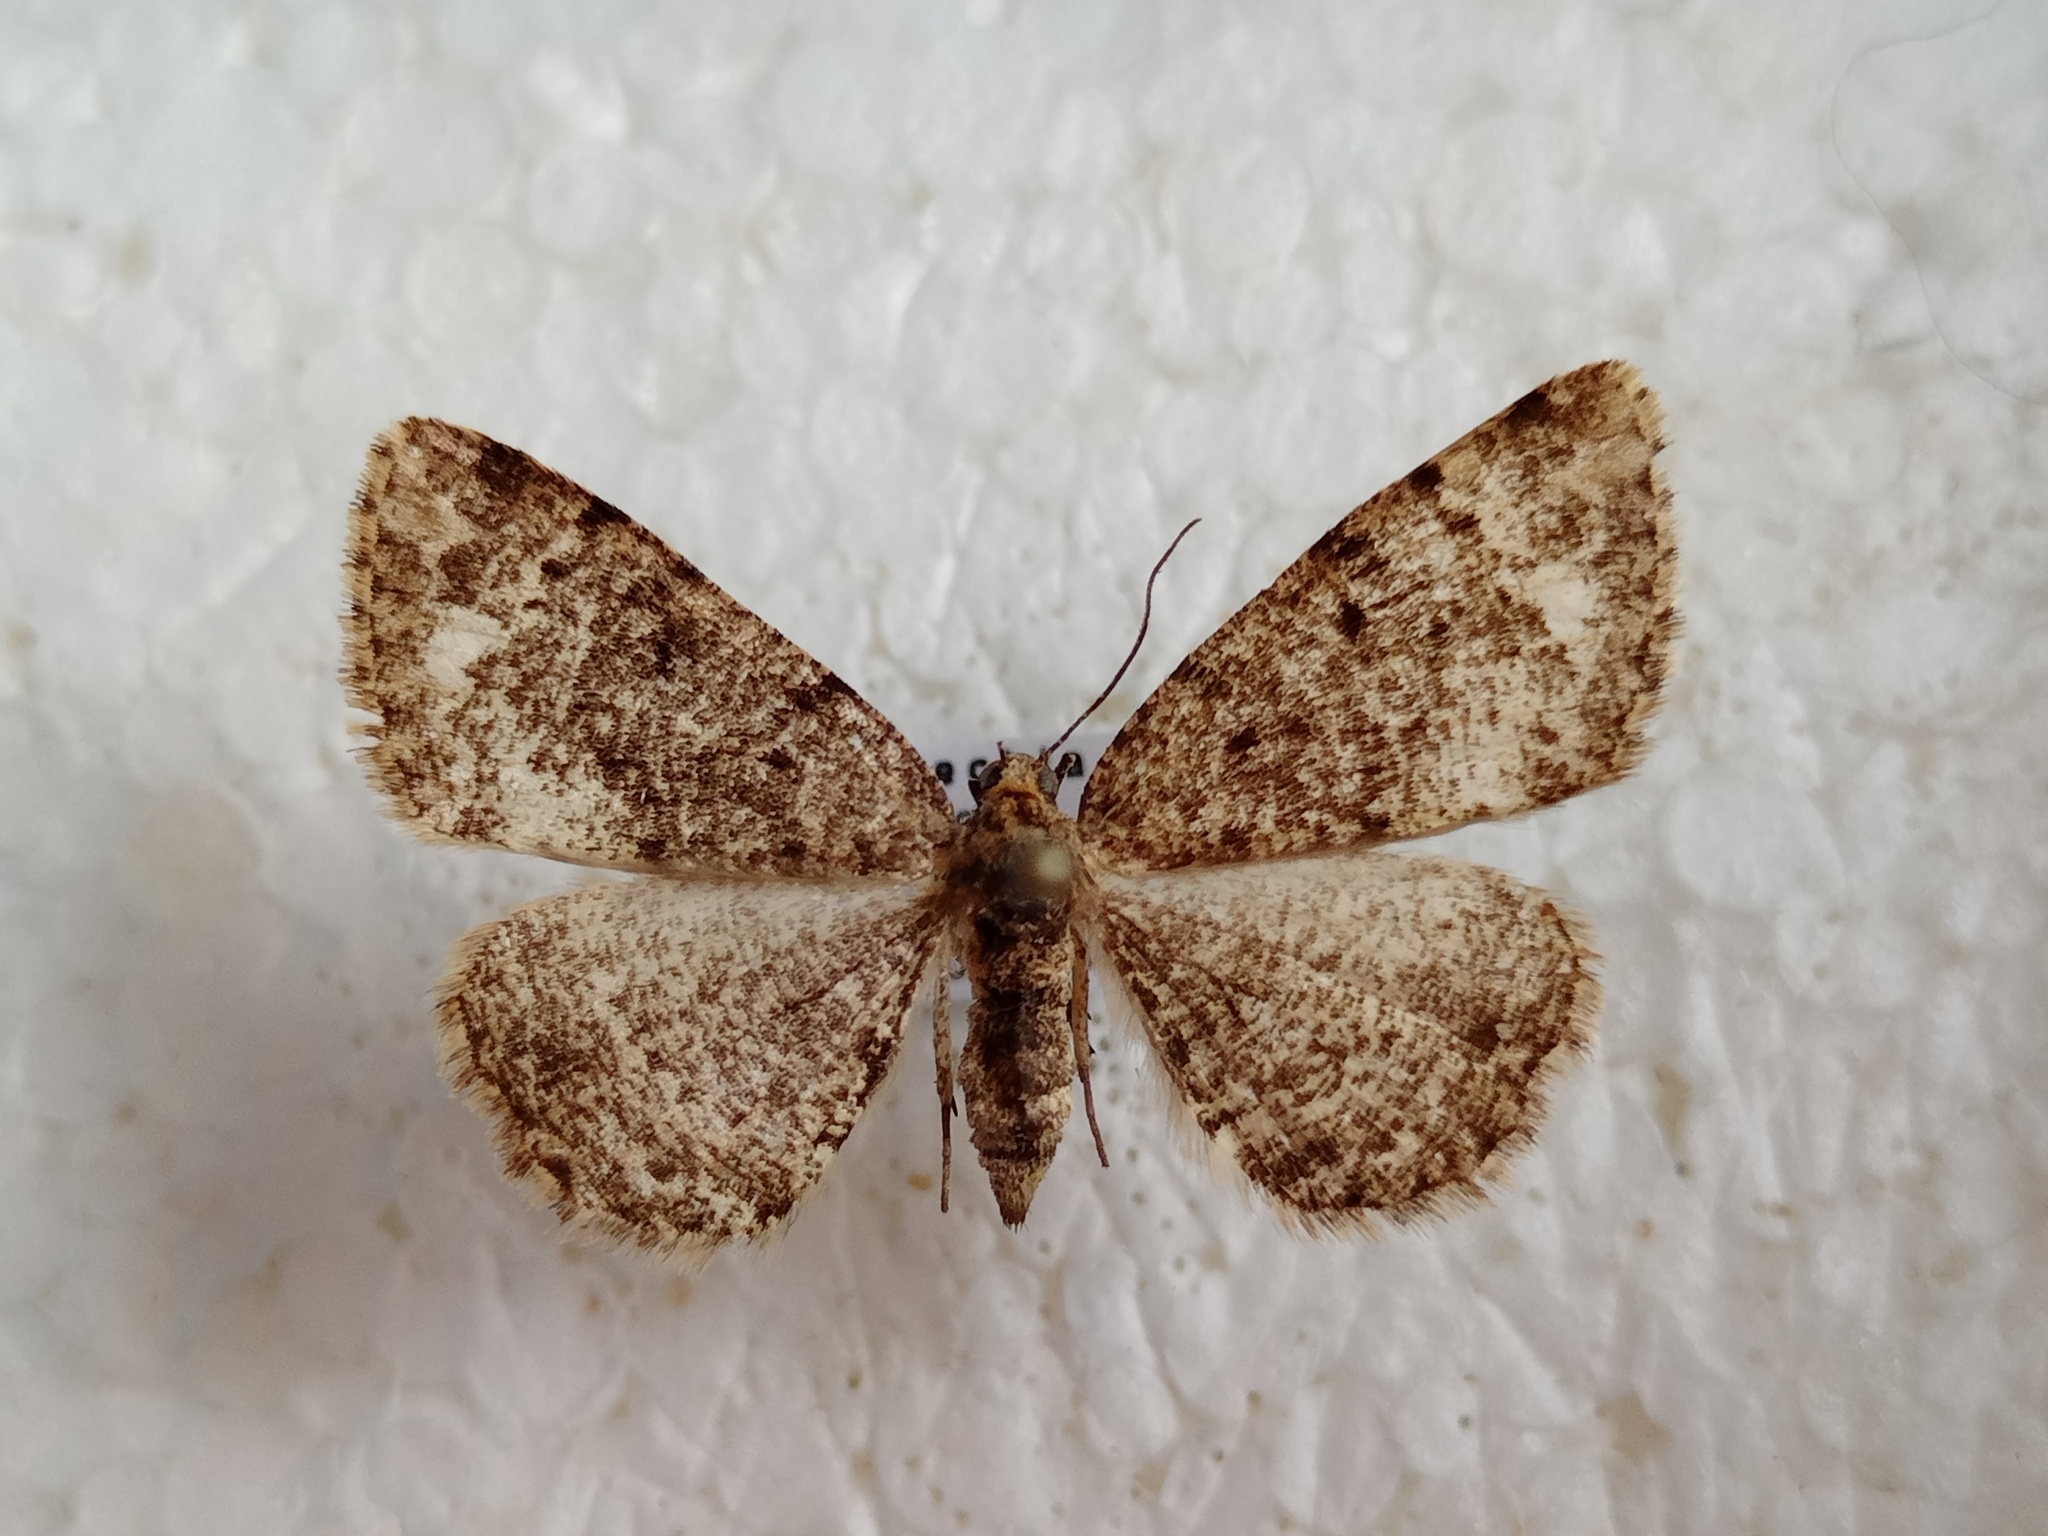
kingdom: Animalia
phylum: Arthropoda
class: Insecta
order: Lepidoptera
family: Geometridae
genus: Parectropis
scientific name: Parectropis similaria
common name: Brindled white-spot
